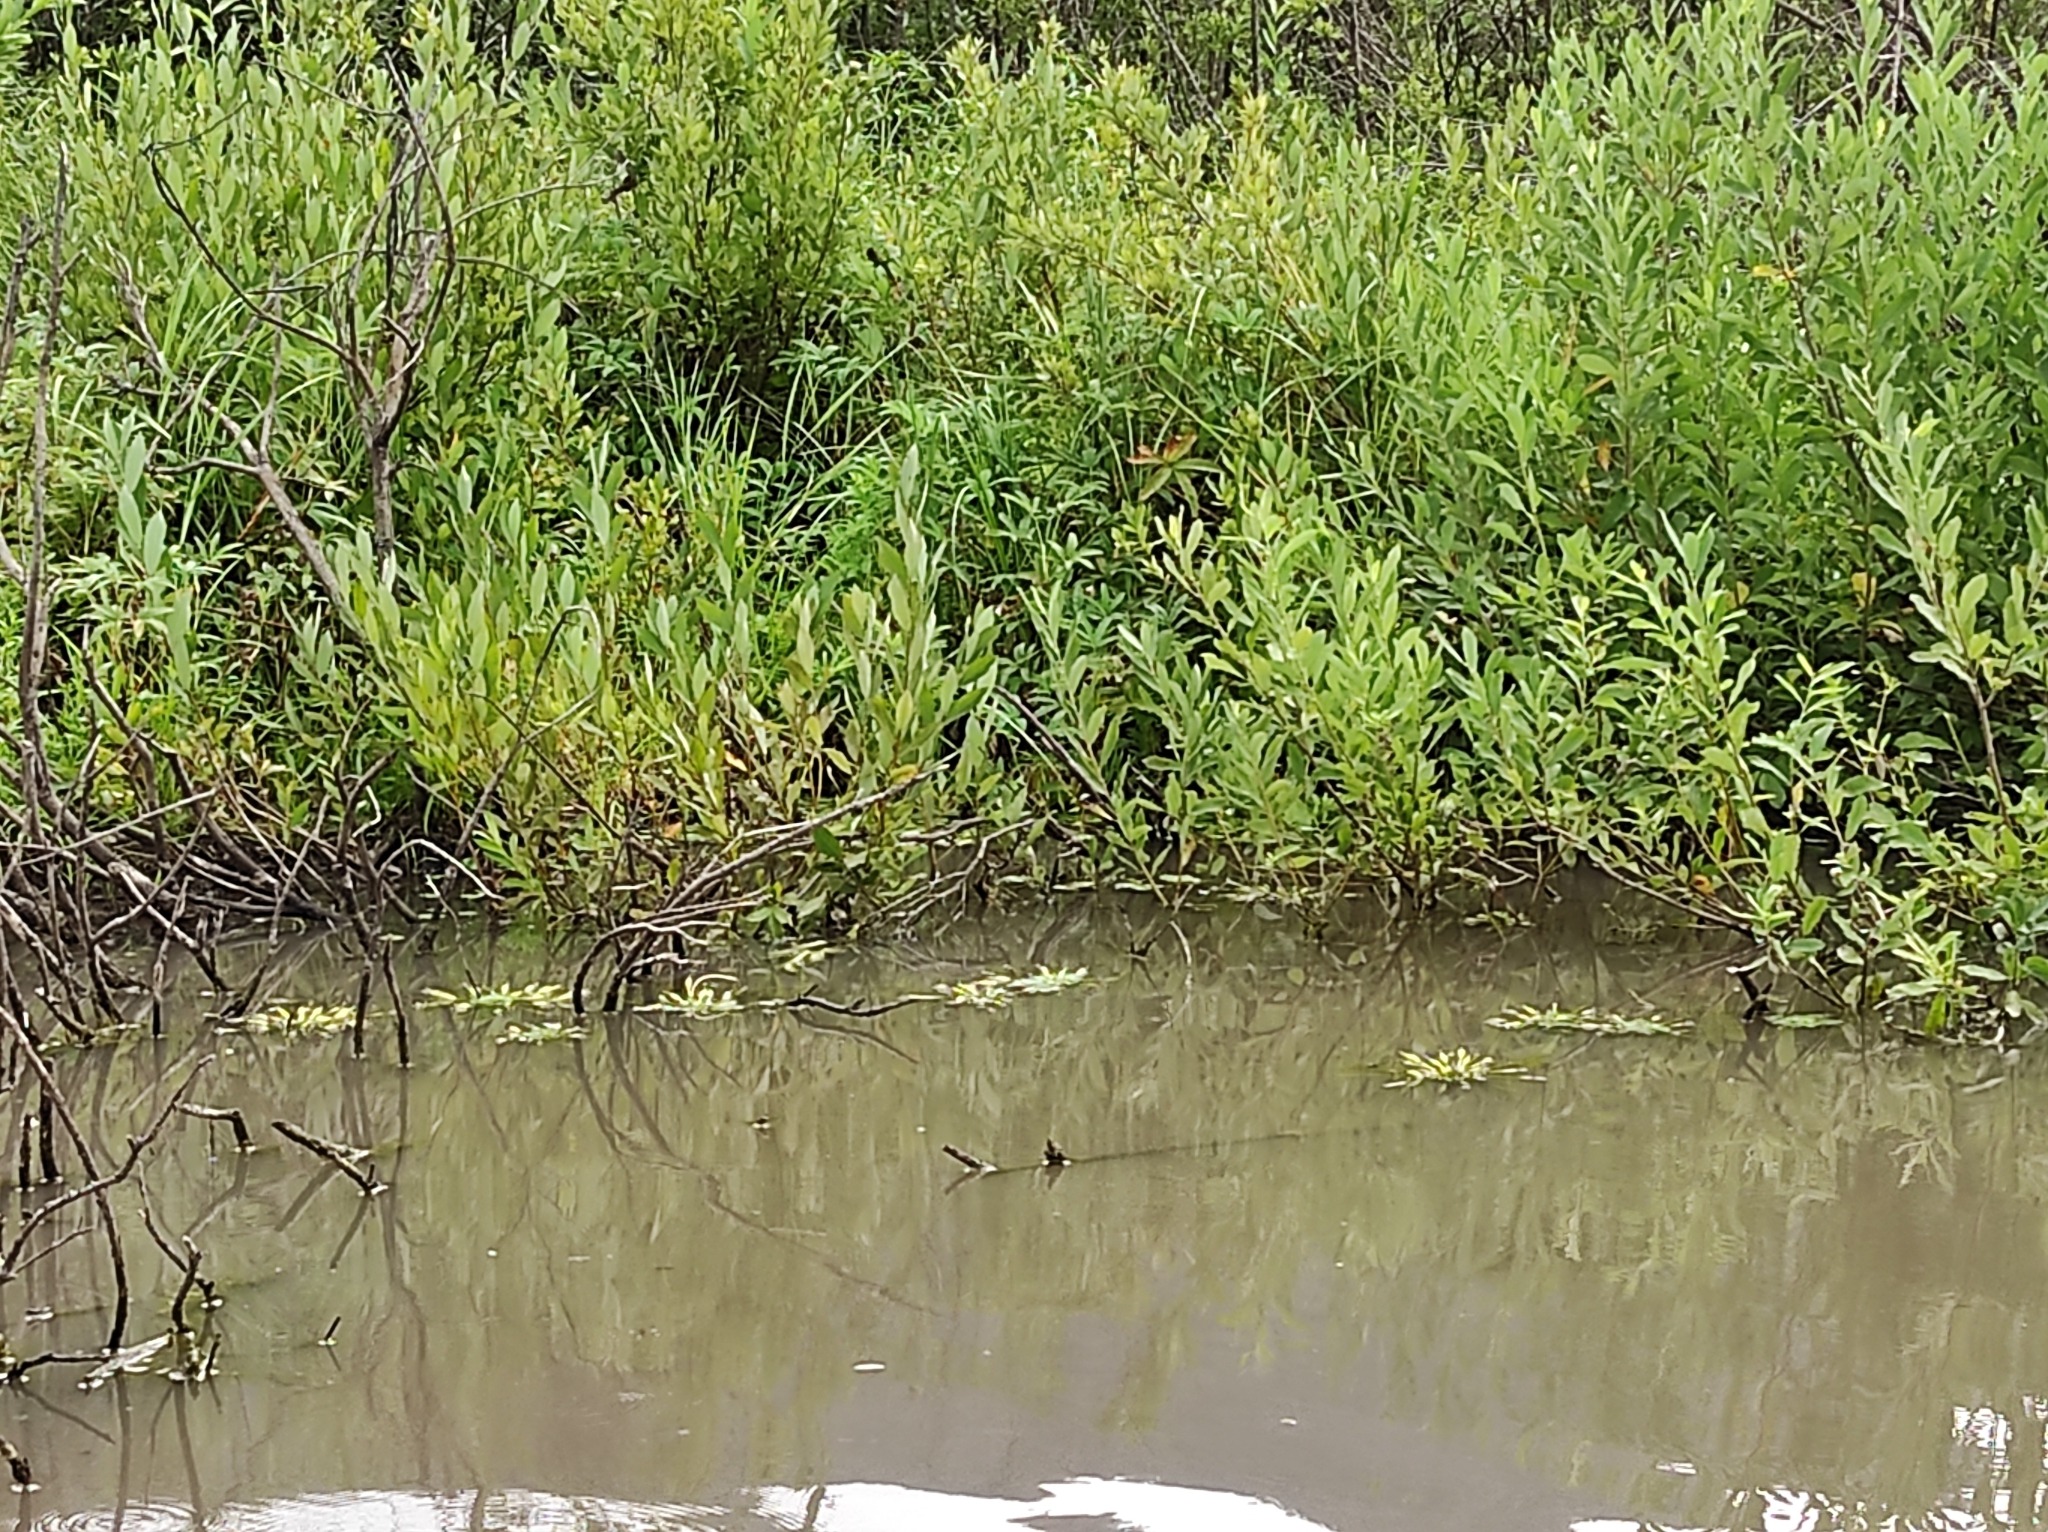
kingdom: Plantae
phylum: Tracheophyta
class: Magnoliopsida
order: Myrtales
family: Lythraceae
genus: Trapa
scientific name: Trapa natans
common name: Water chestnut
